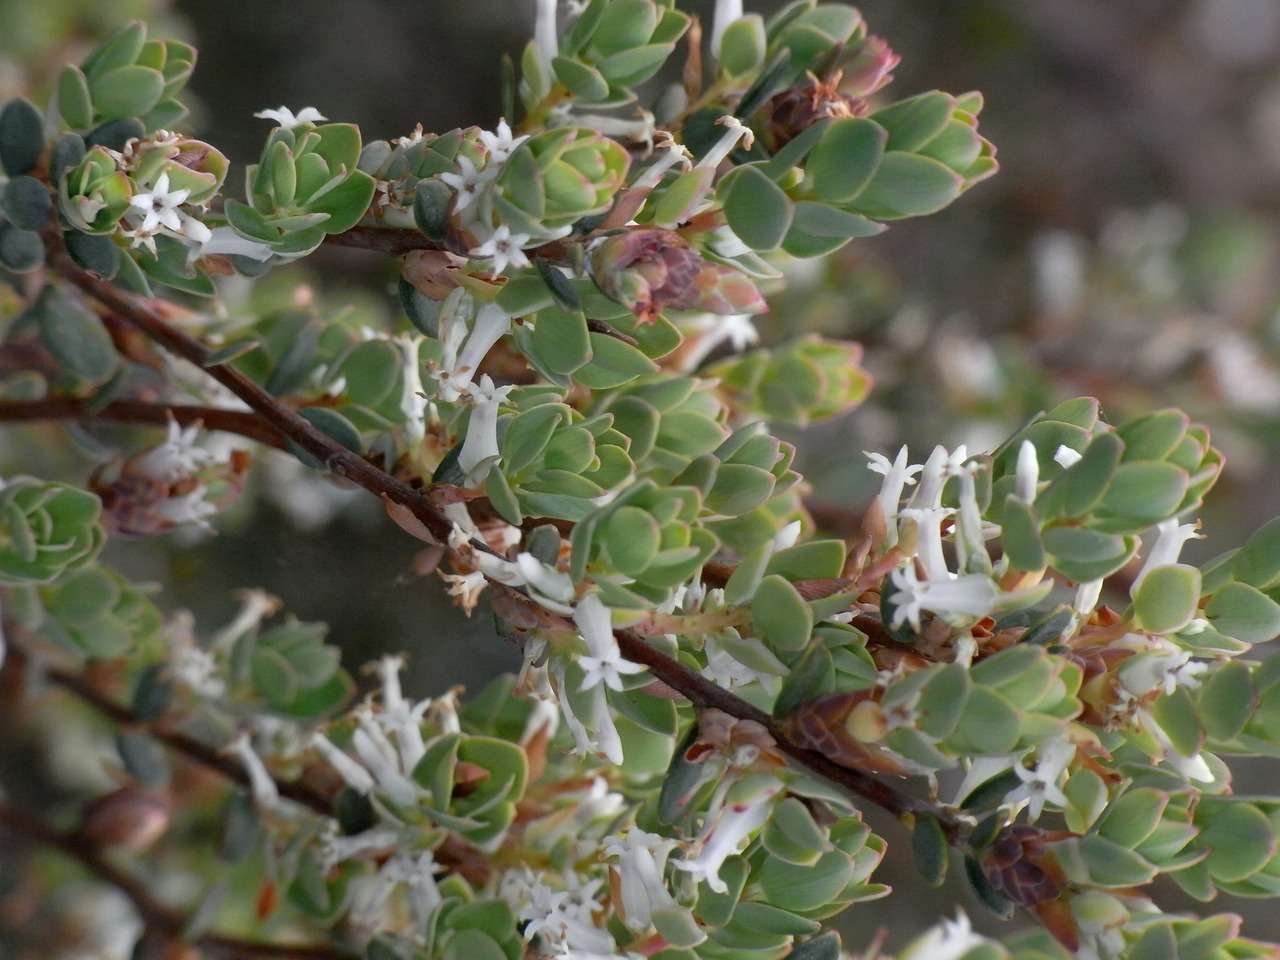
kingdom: Plantae
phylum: Tracheophyta
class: Magnoliopsida
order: Ericales
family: Ericaceae
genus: Brachyloma
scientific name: Brachyloma daphnoides
